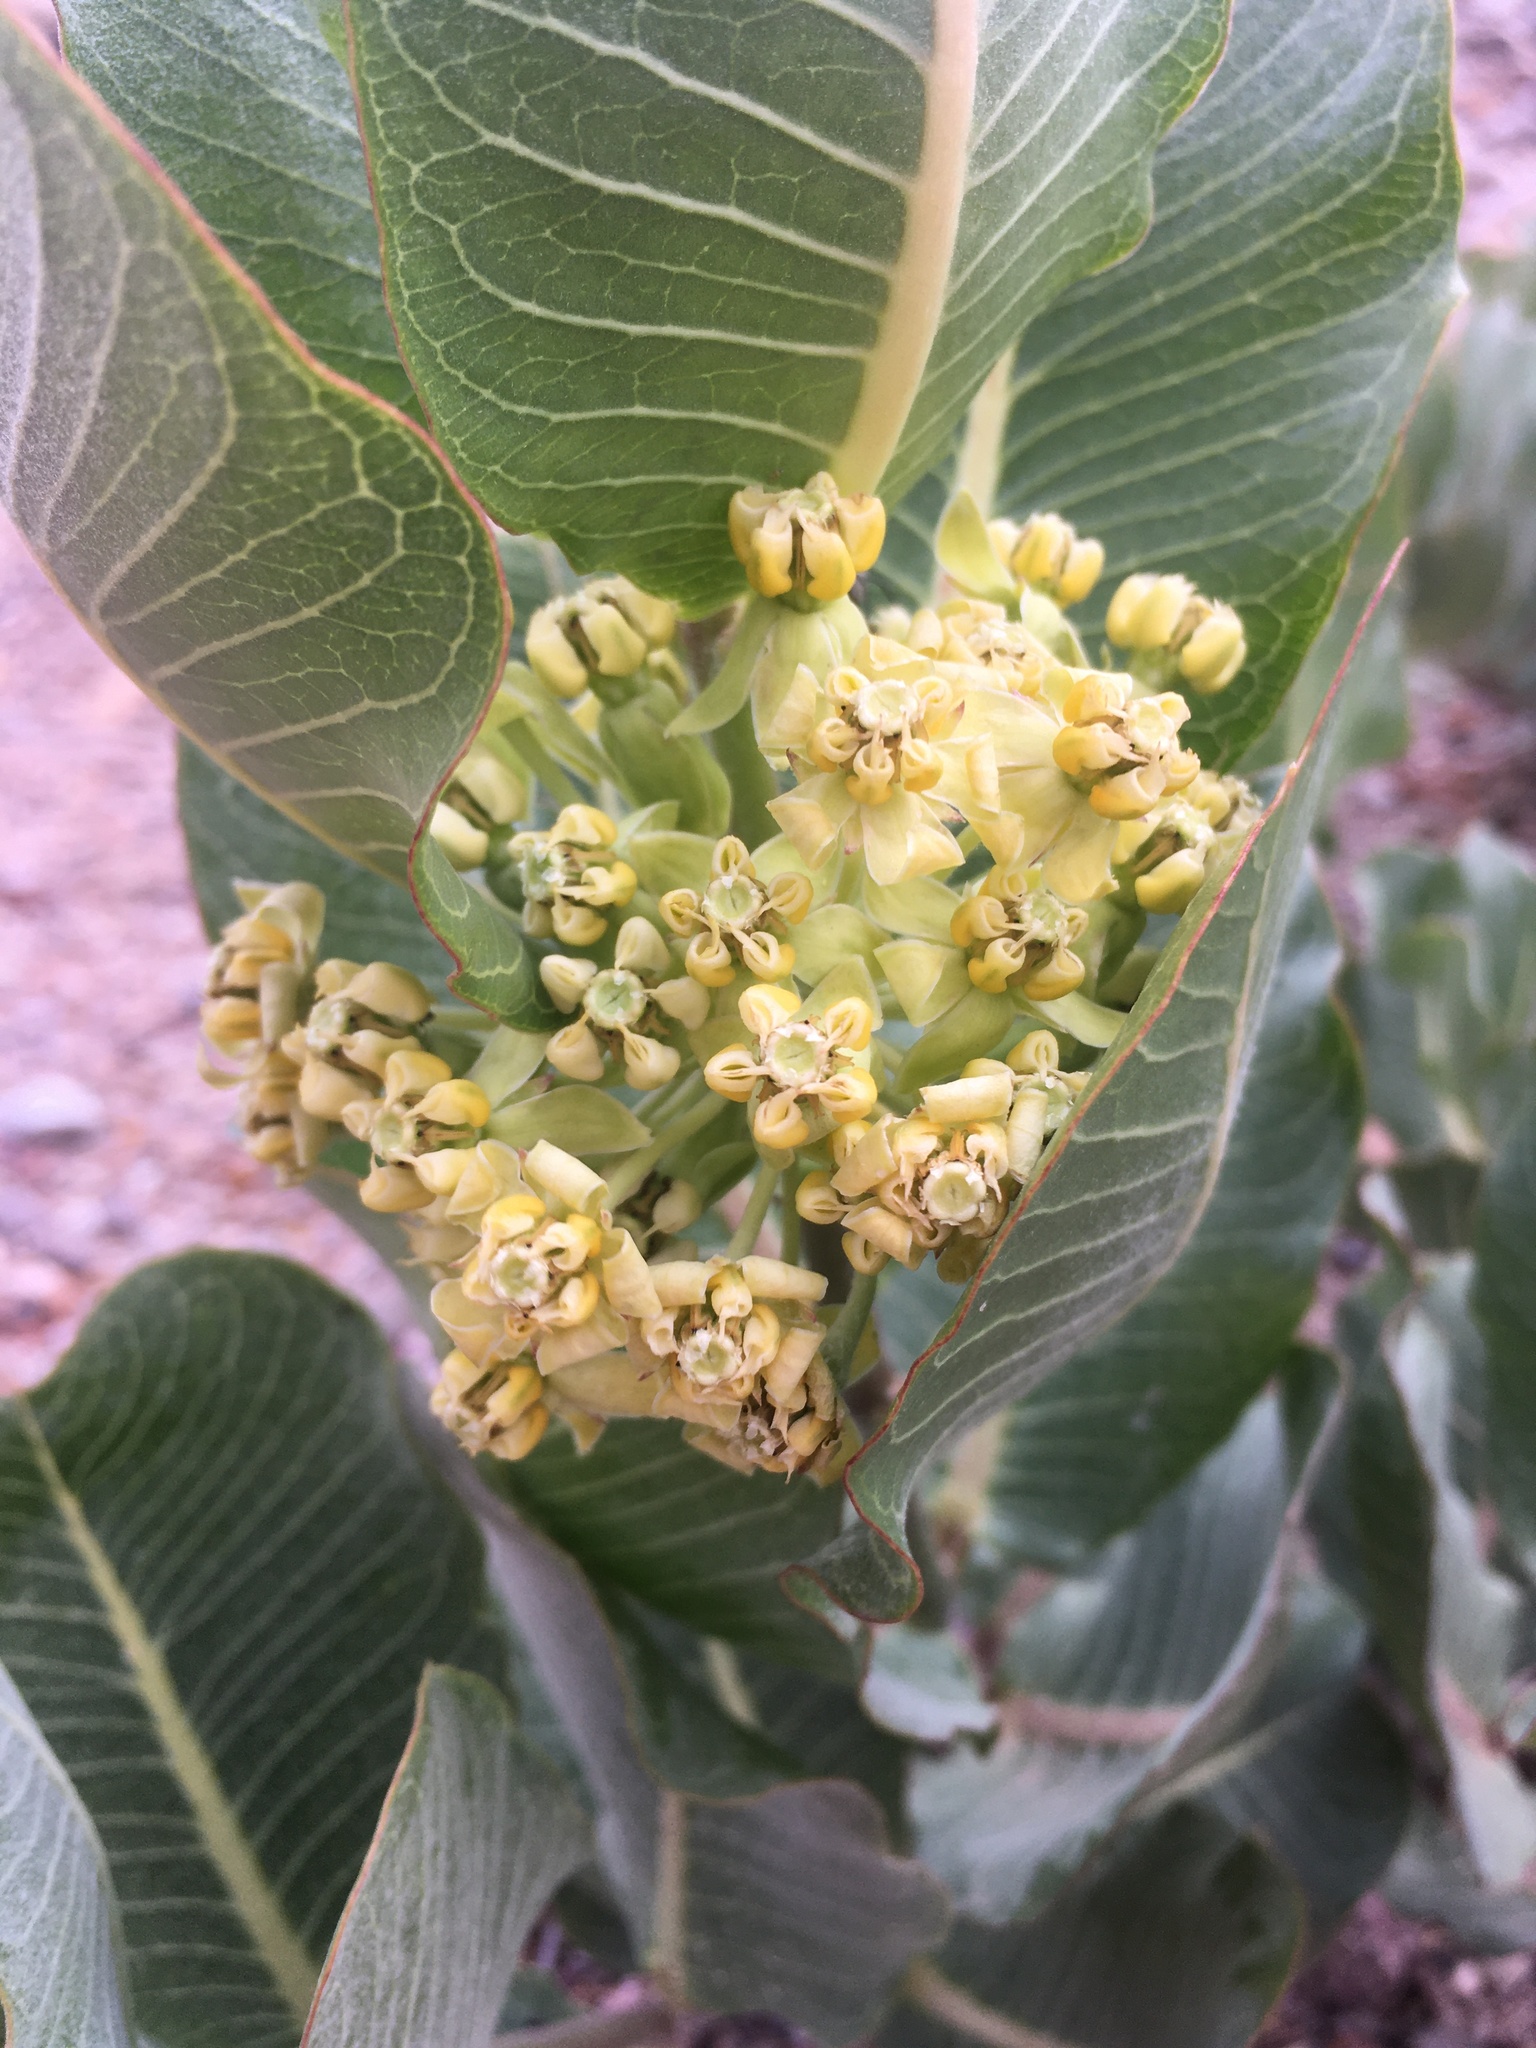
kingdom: Plantae
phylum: Tracheophyta
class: Magnoliopsida
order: Gentianales
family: Apocynaceae
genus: Asclepias
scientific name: Asclepias latifolia
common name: Broadleaf milkweed
